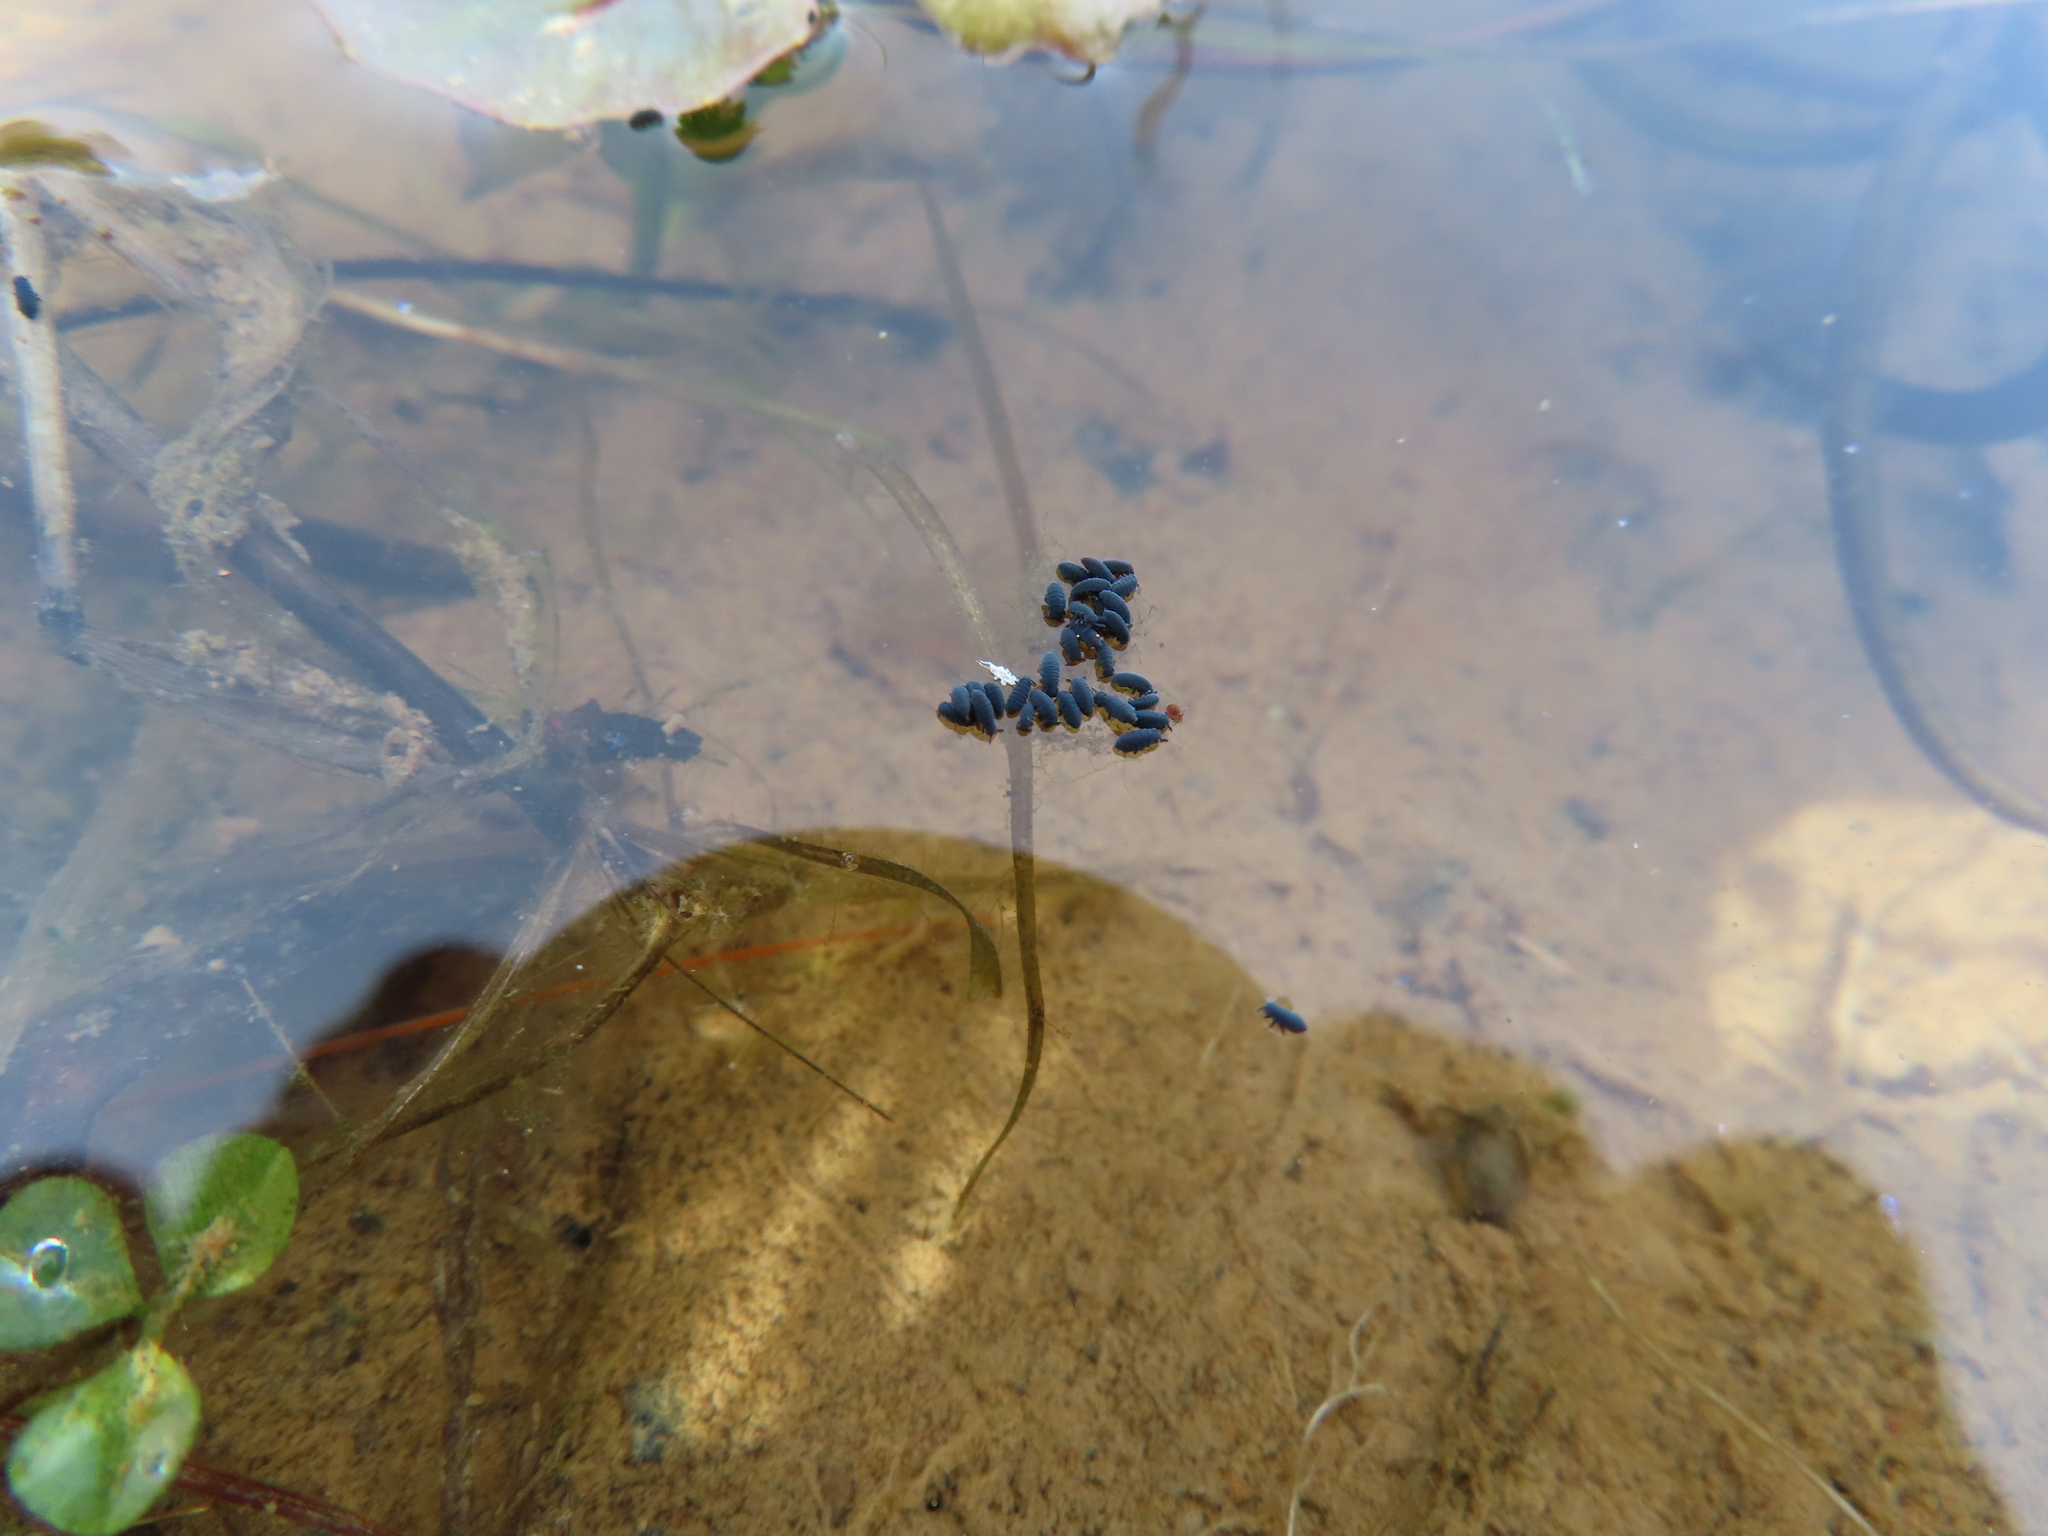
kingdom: Animalia
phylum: Arthropoda
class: Collembola
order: Poduromorpha
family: Poduridae
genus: Podura
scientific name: Podura aquatica
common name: Water springtail
